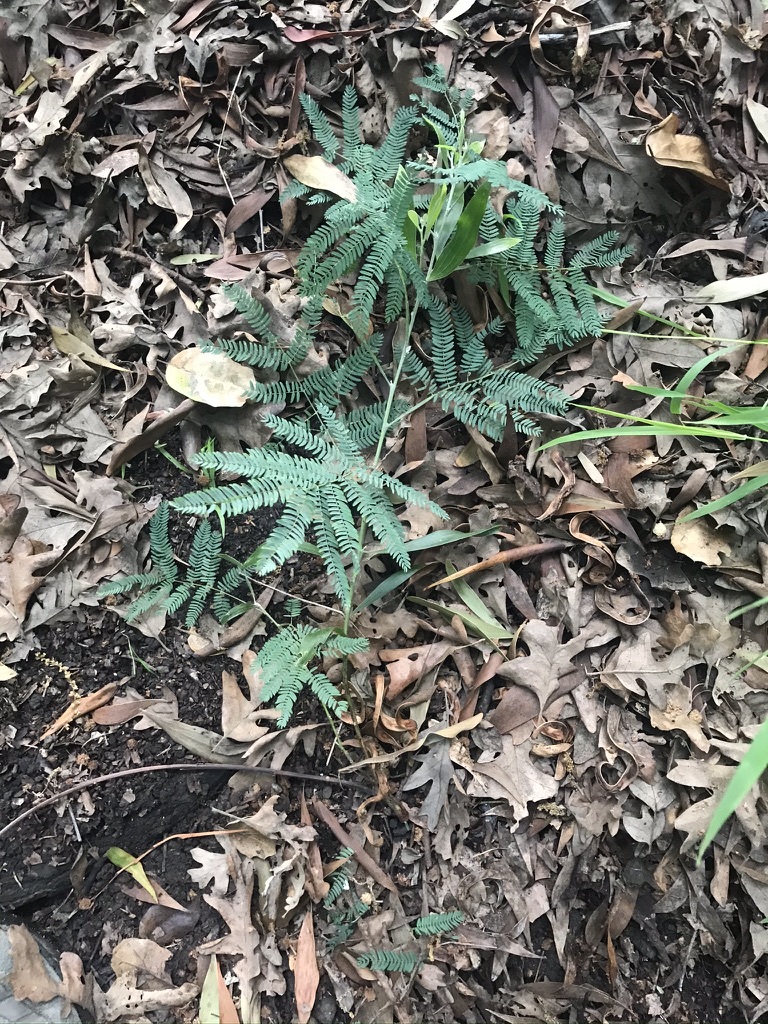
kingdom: Plantae
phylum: Tracheophyta
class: Magnoliopsida
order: Fabales
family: Fabaceae
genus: Acacia
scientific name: Acacia melanoxylon
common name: Blackwood
